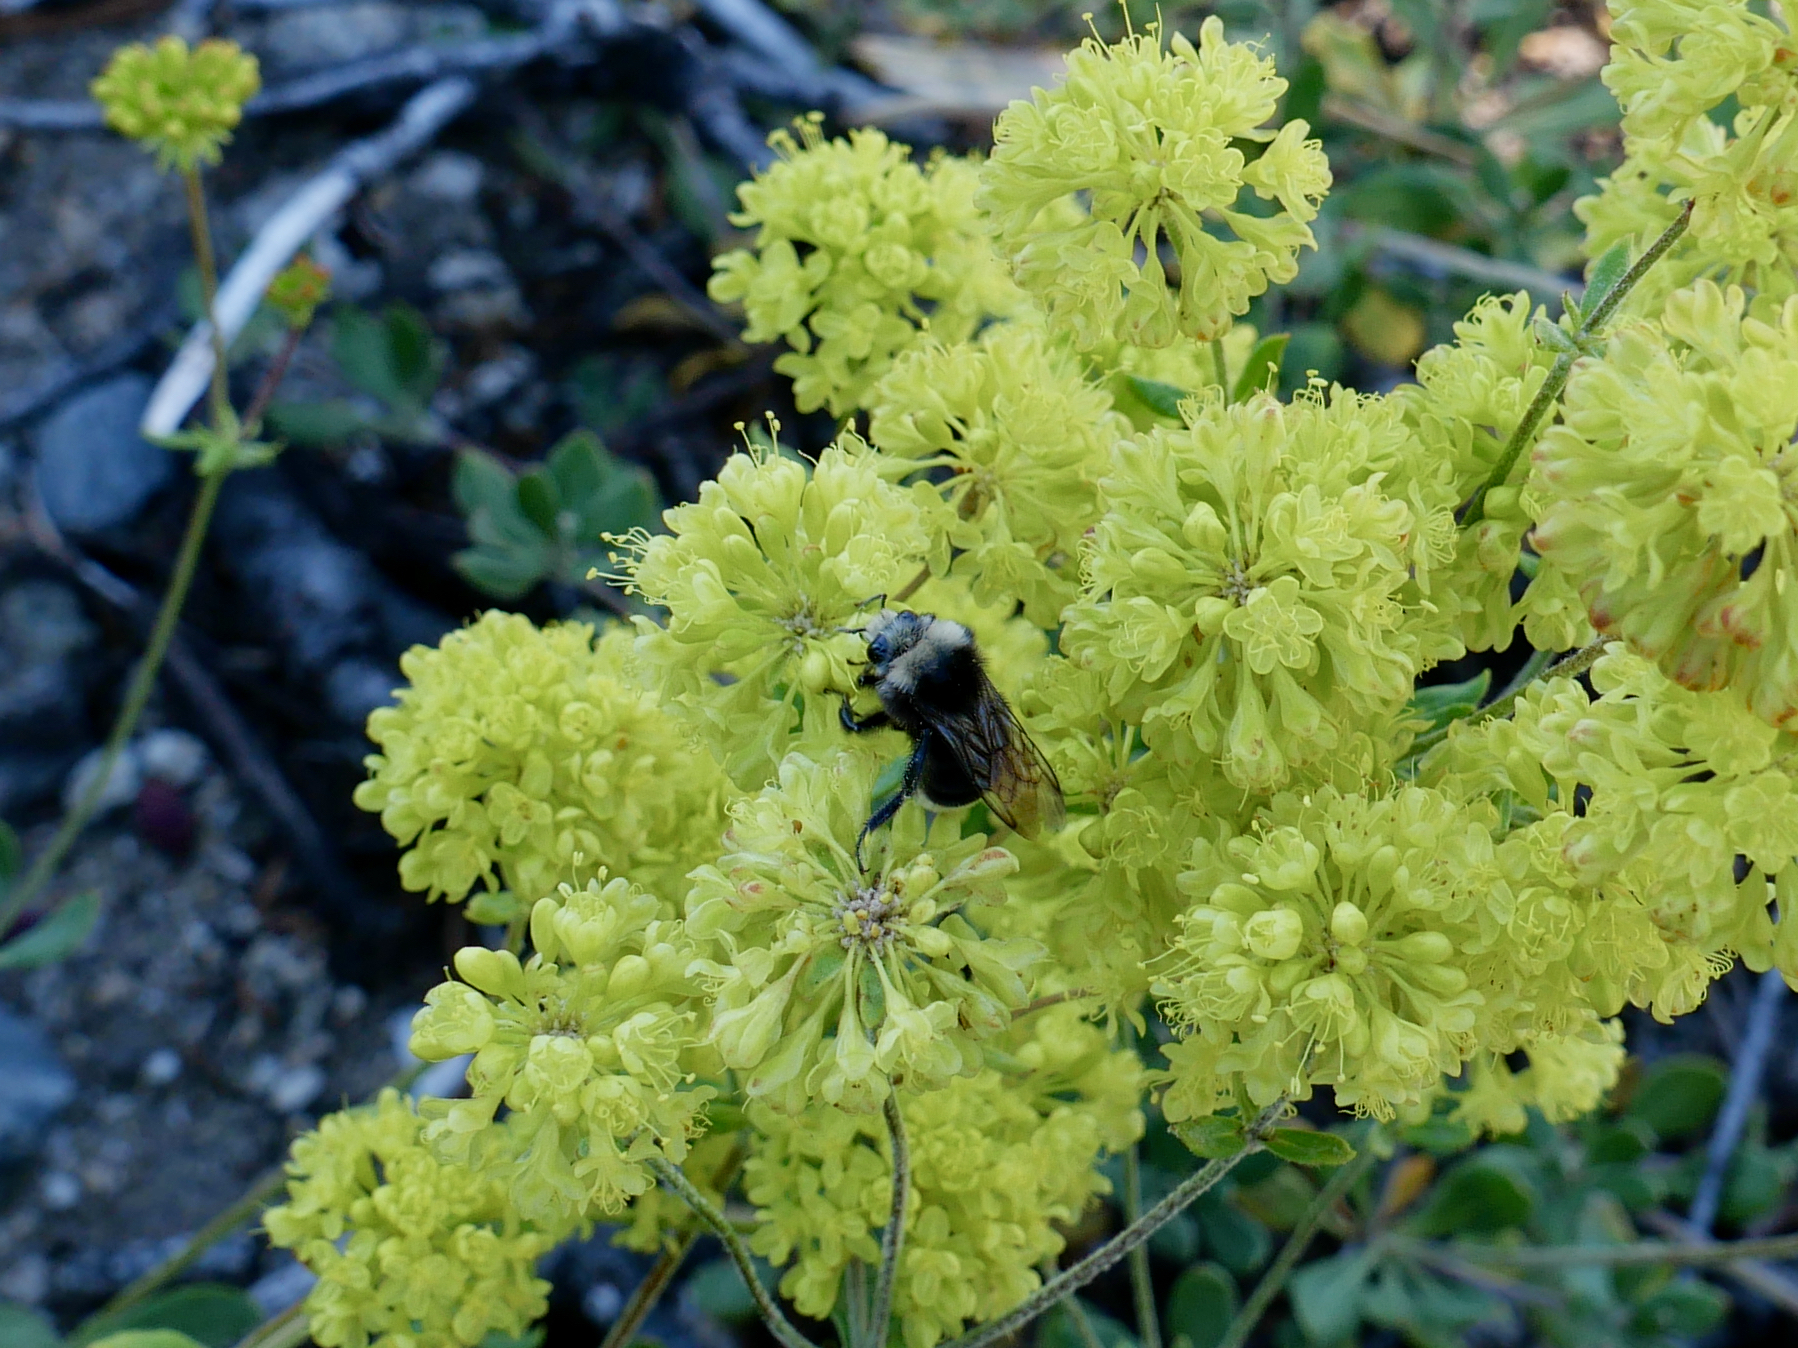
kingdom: Animalia
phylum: Arthropoda
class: Insecta
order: Hymenoptera
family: Apidae
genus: Bombus
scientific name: Bombus vosnesenskii
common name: Vosnesensky bumble bee
